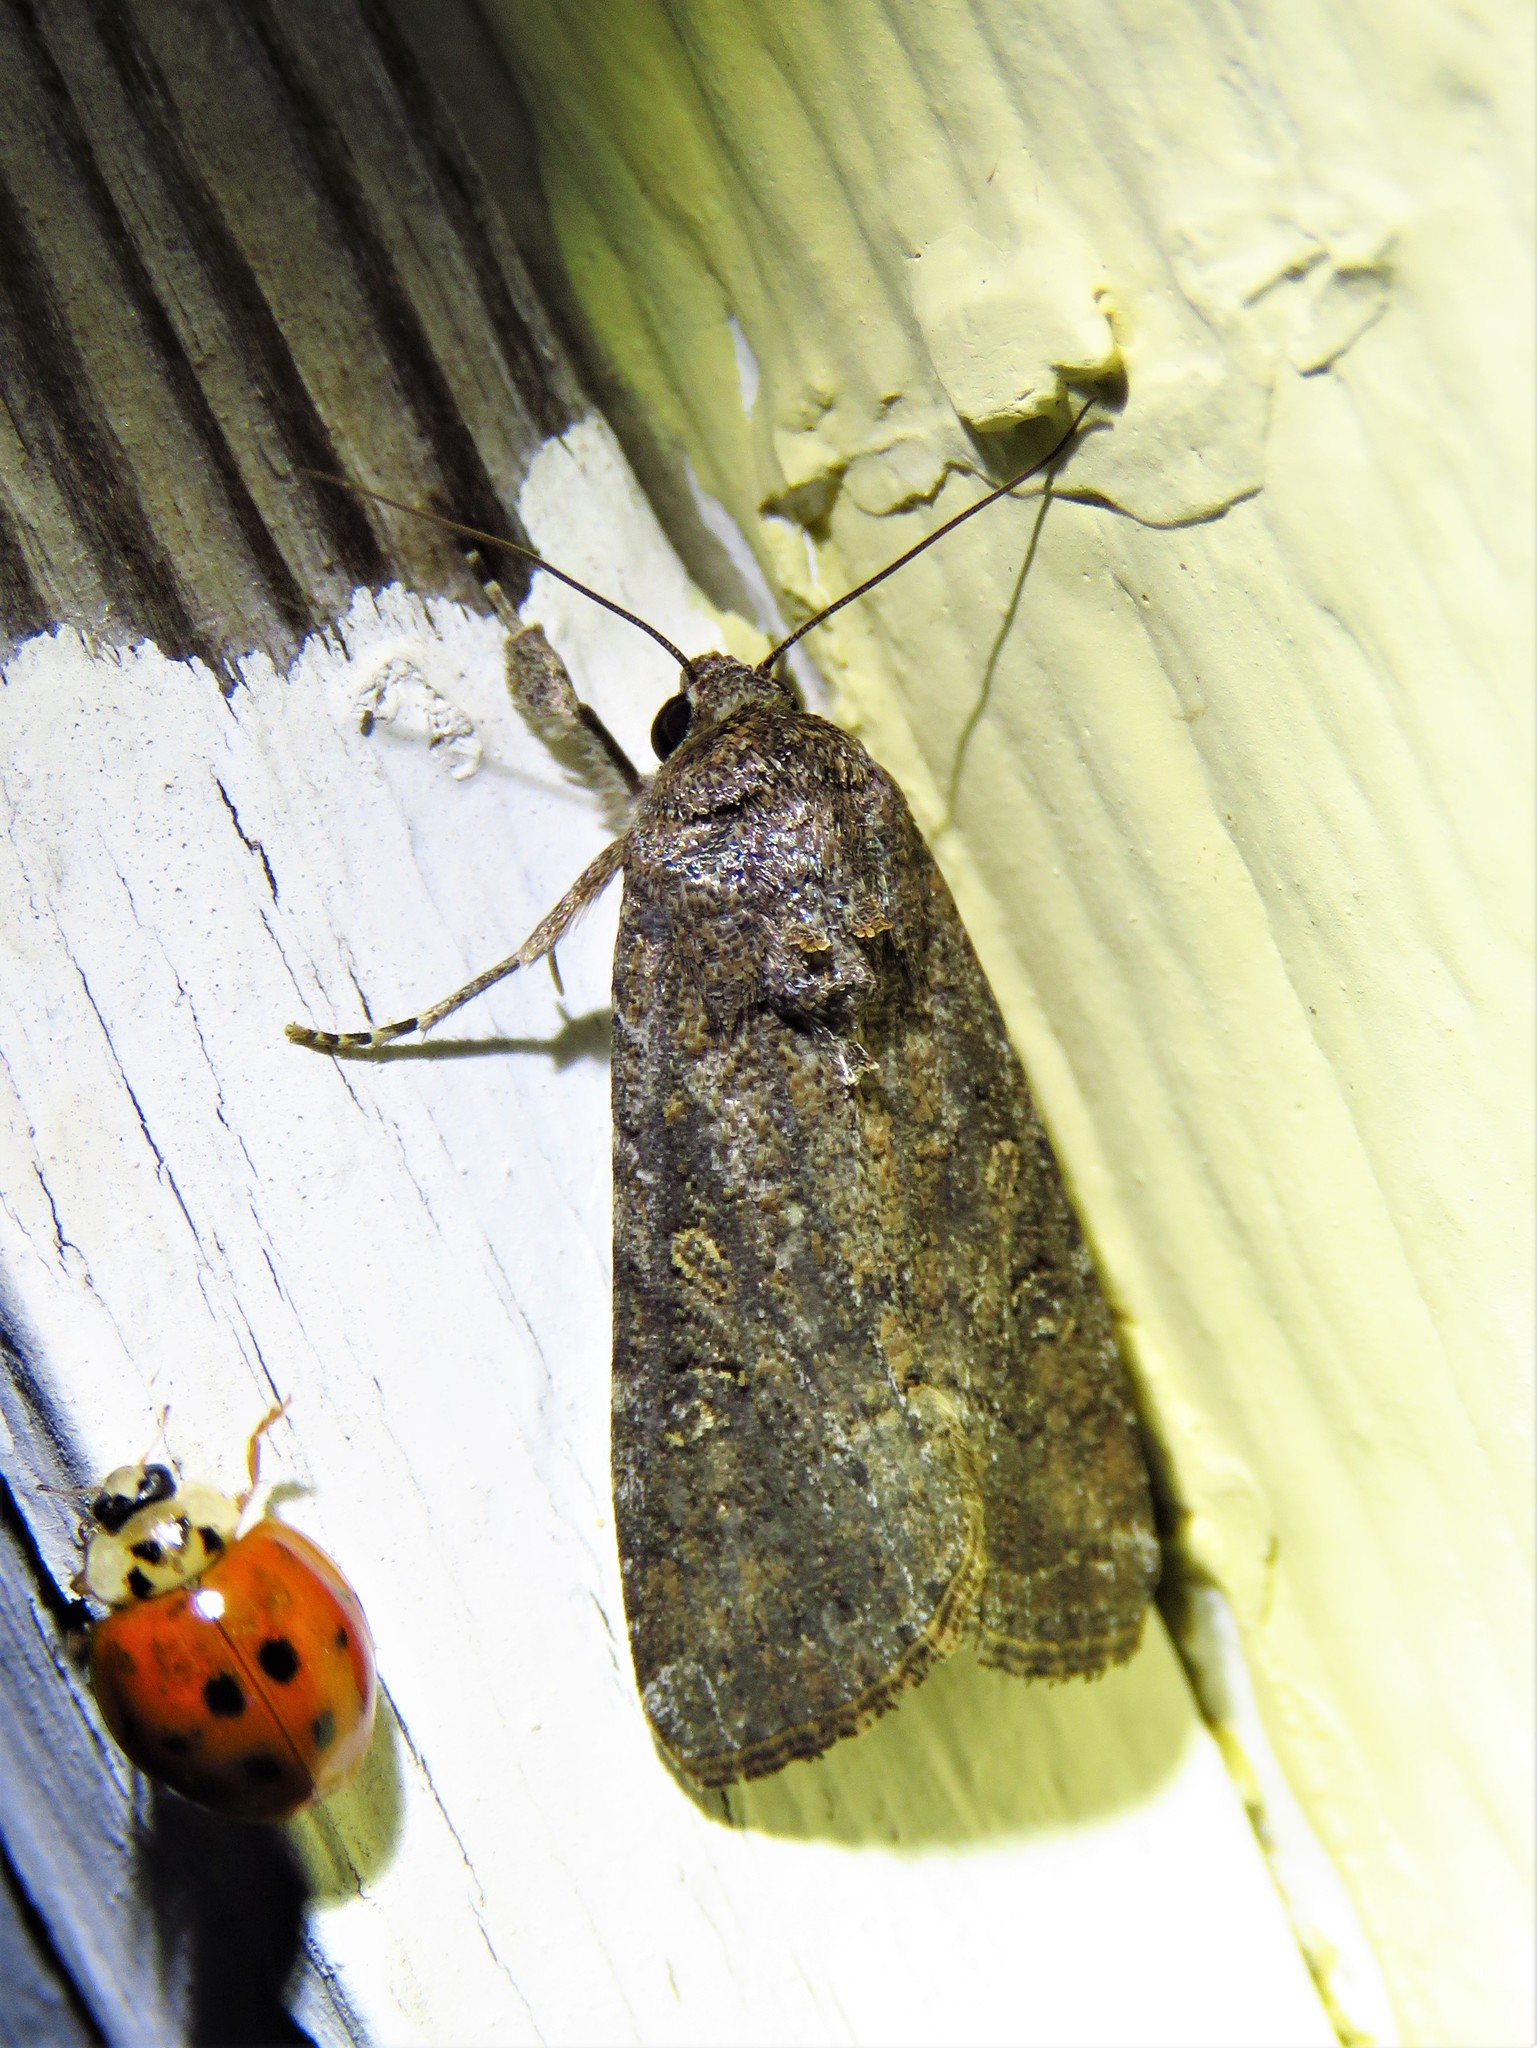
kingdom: Animalia
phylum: Arthropoda
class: Insecta
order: Lepidoptera
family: Noctuidae
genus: Spodoptera
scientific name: Spodoptera exigua
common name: Beet armyworm
